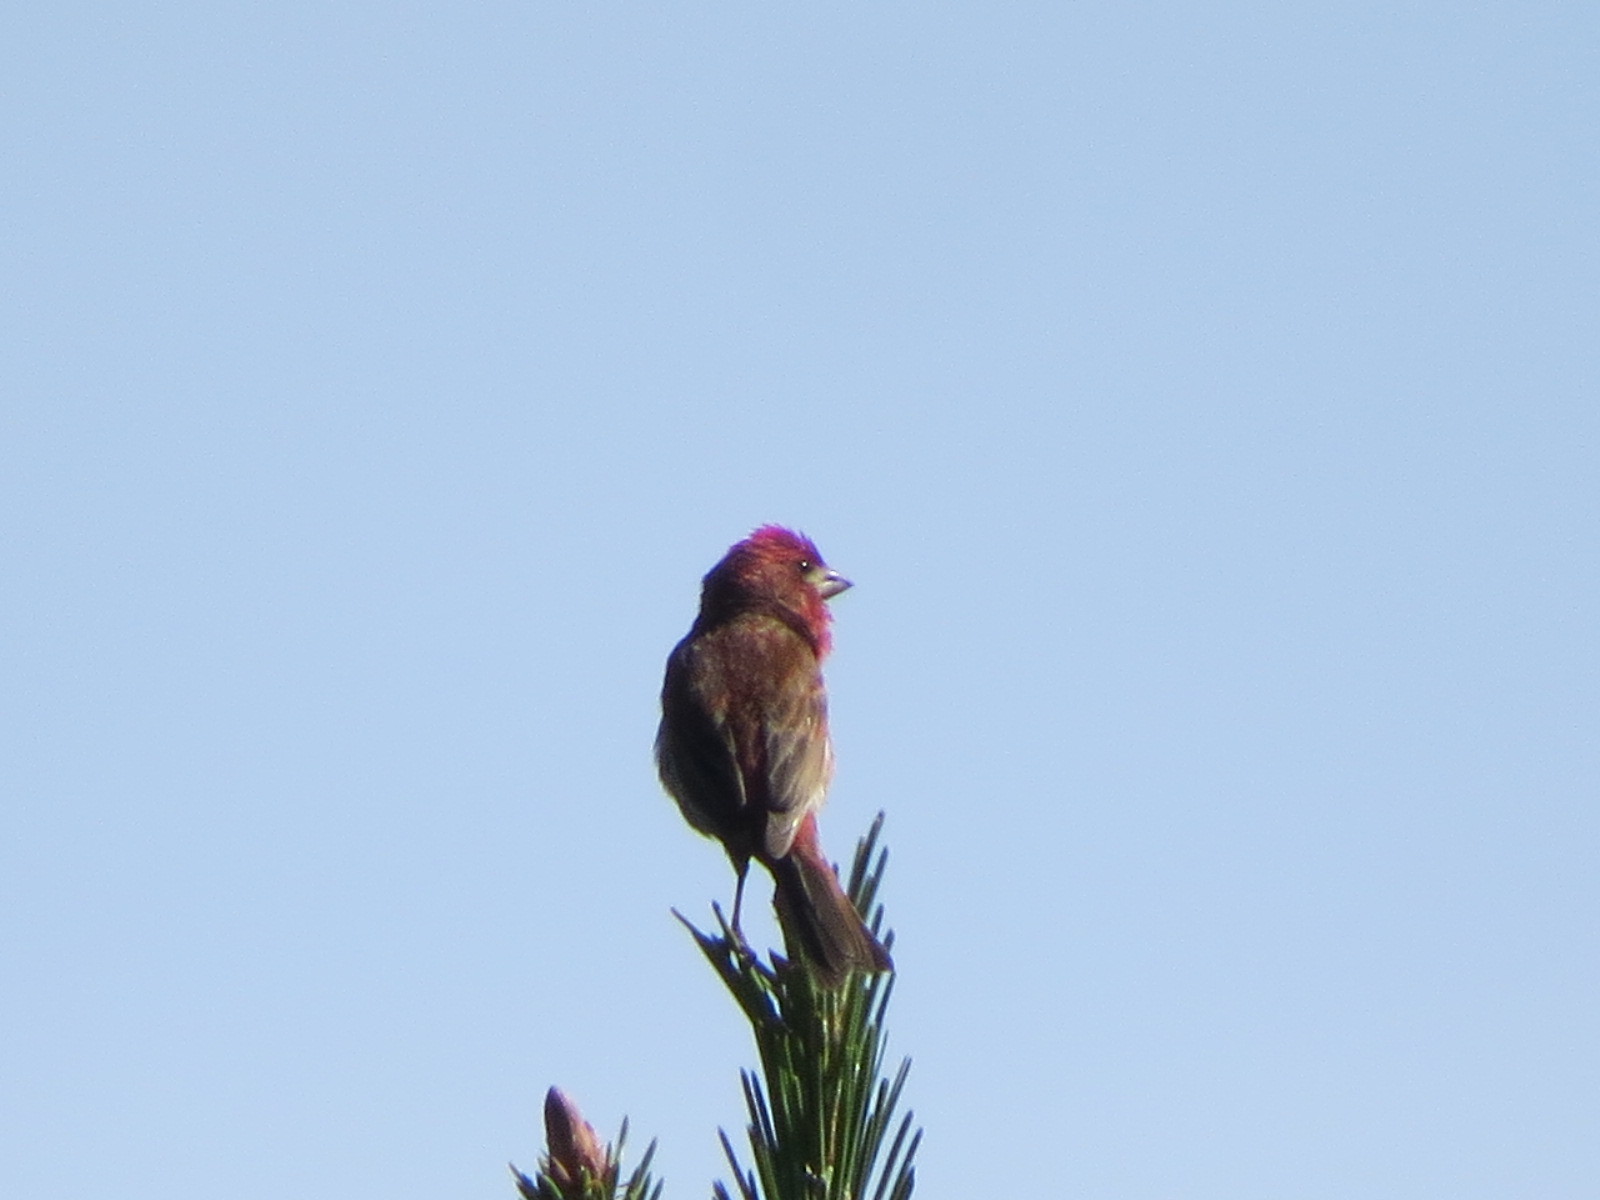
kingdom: Animalia
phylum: Chordata
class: Aves
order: Passeriformes
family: Fringillidae
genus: Haemorhous
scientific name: Haemorhous purpureus
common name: Purple finch
